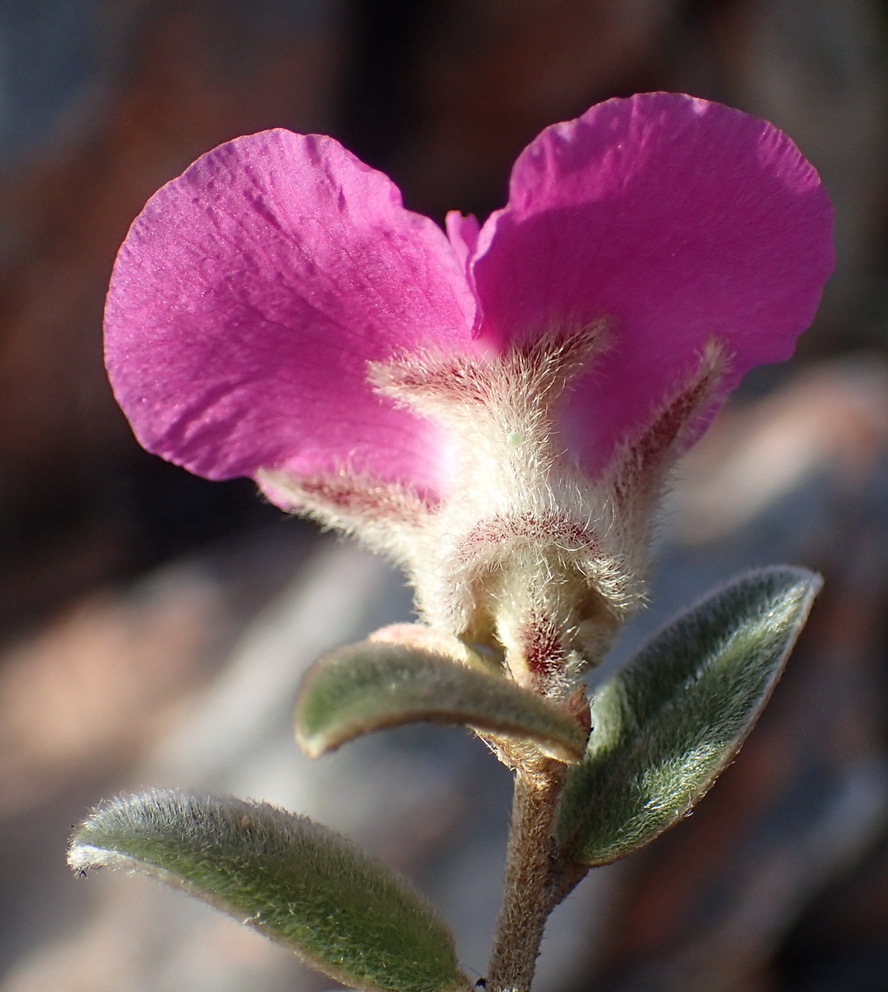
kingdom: Plantae
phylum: Tracheophyta
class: Magnoliopsida
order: Fabales
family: Fabaceae
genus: Podalyria
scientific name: Podalyria burchellii
